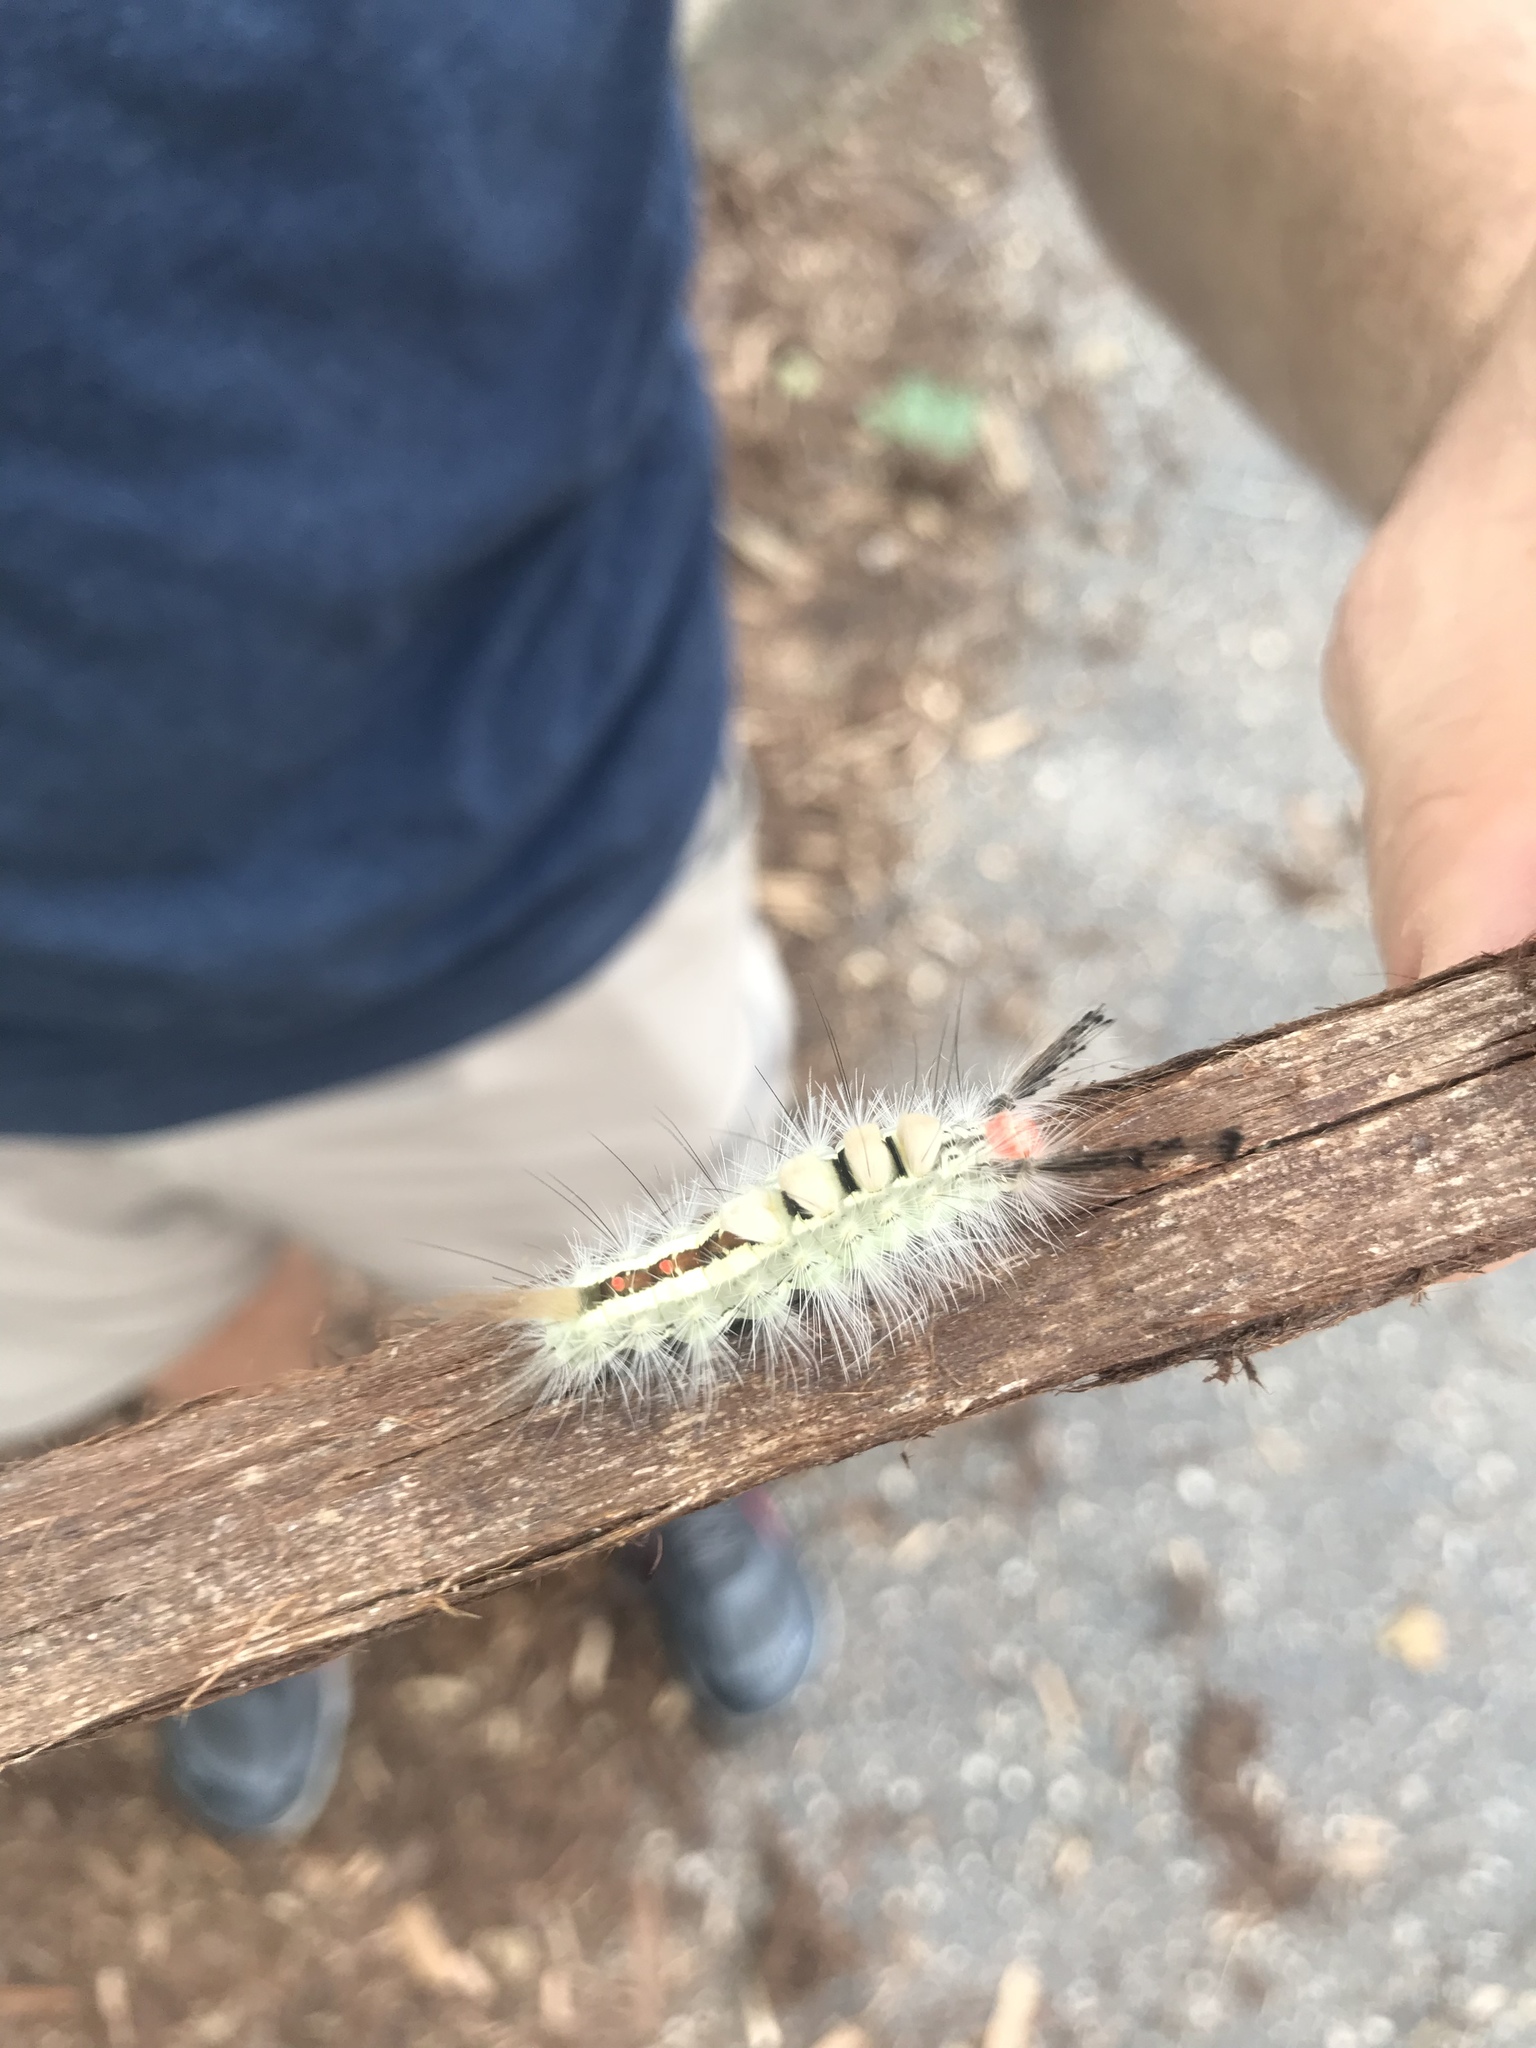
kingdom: Animalia
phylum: Arthropoda
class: Insecta
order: Lepidoptera
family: Erebidae
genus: Orgyia
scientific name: Orgyia leucostigma
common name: White-marked tussock moth
